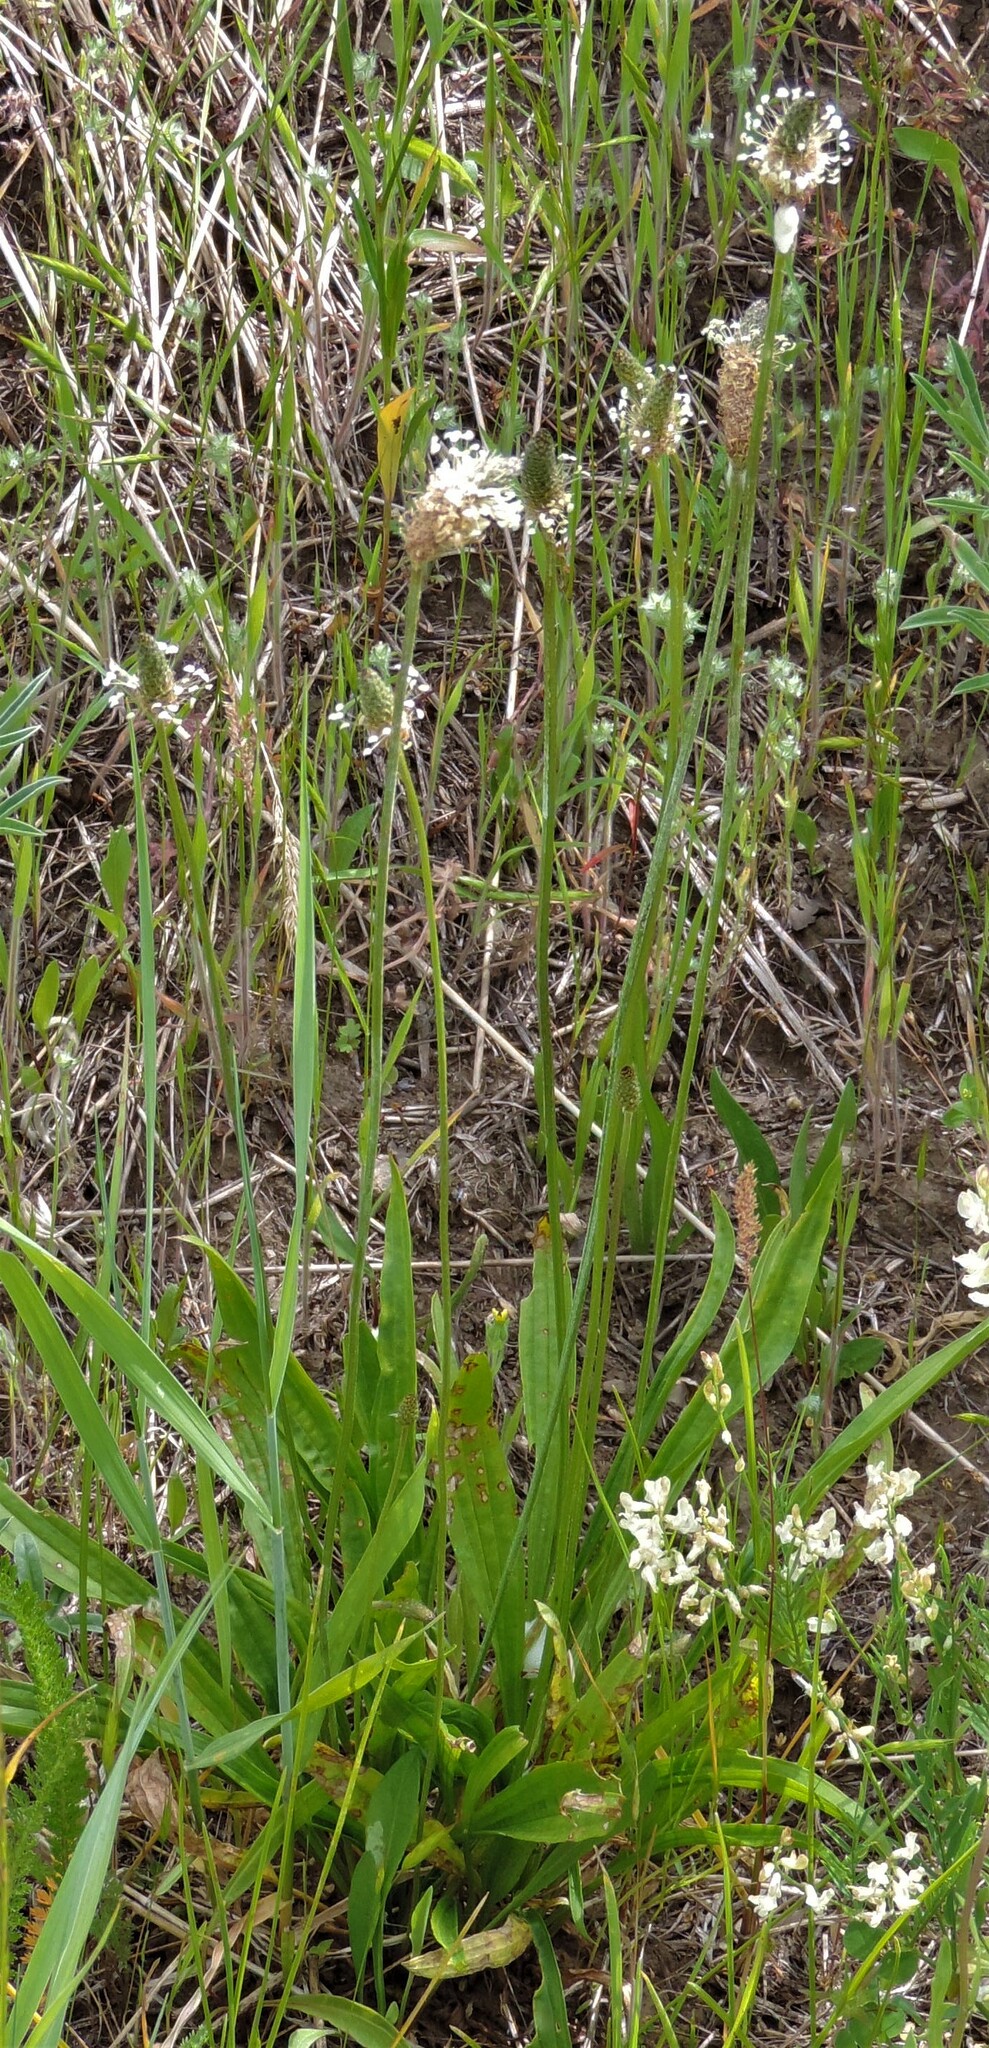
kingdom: Plantae
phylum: Tracheophyta
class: Magnoliopsida
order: Lamiales
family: Plantaginaceae
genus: Plantago
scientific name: Plantago lanceolata
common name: Ribwort plantain
